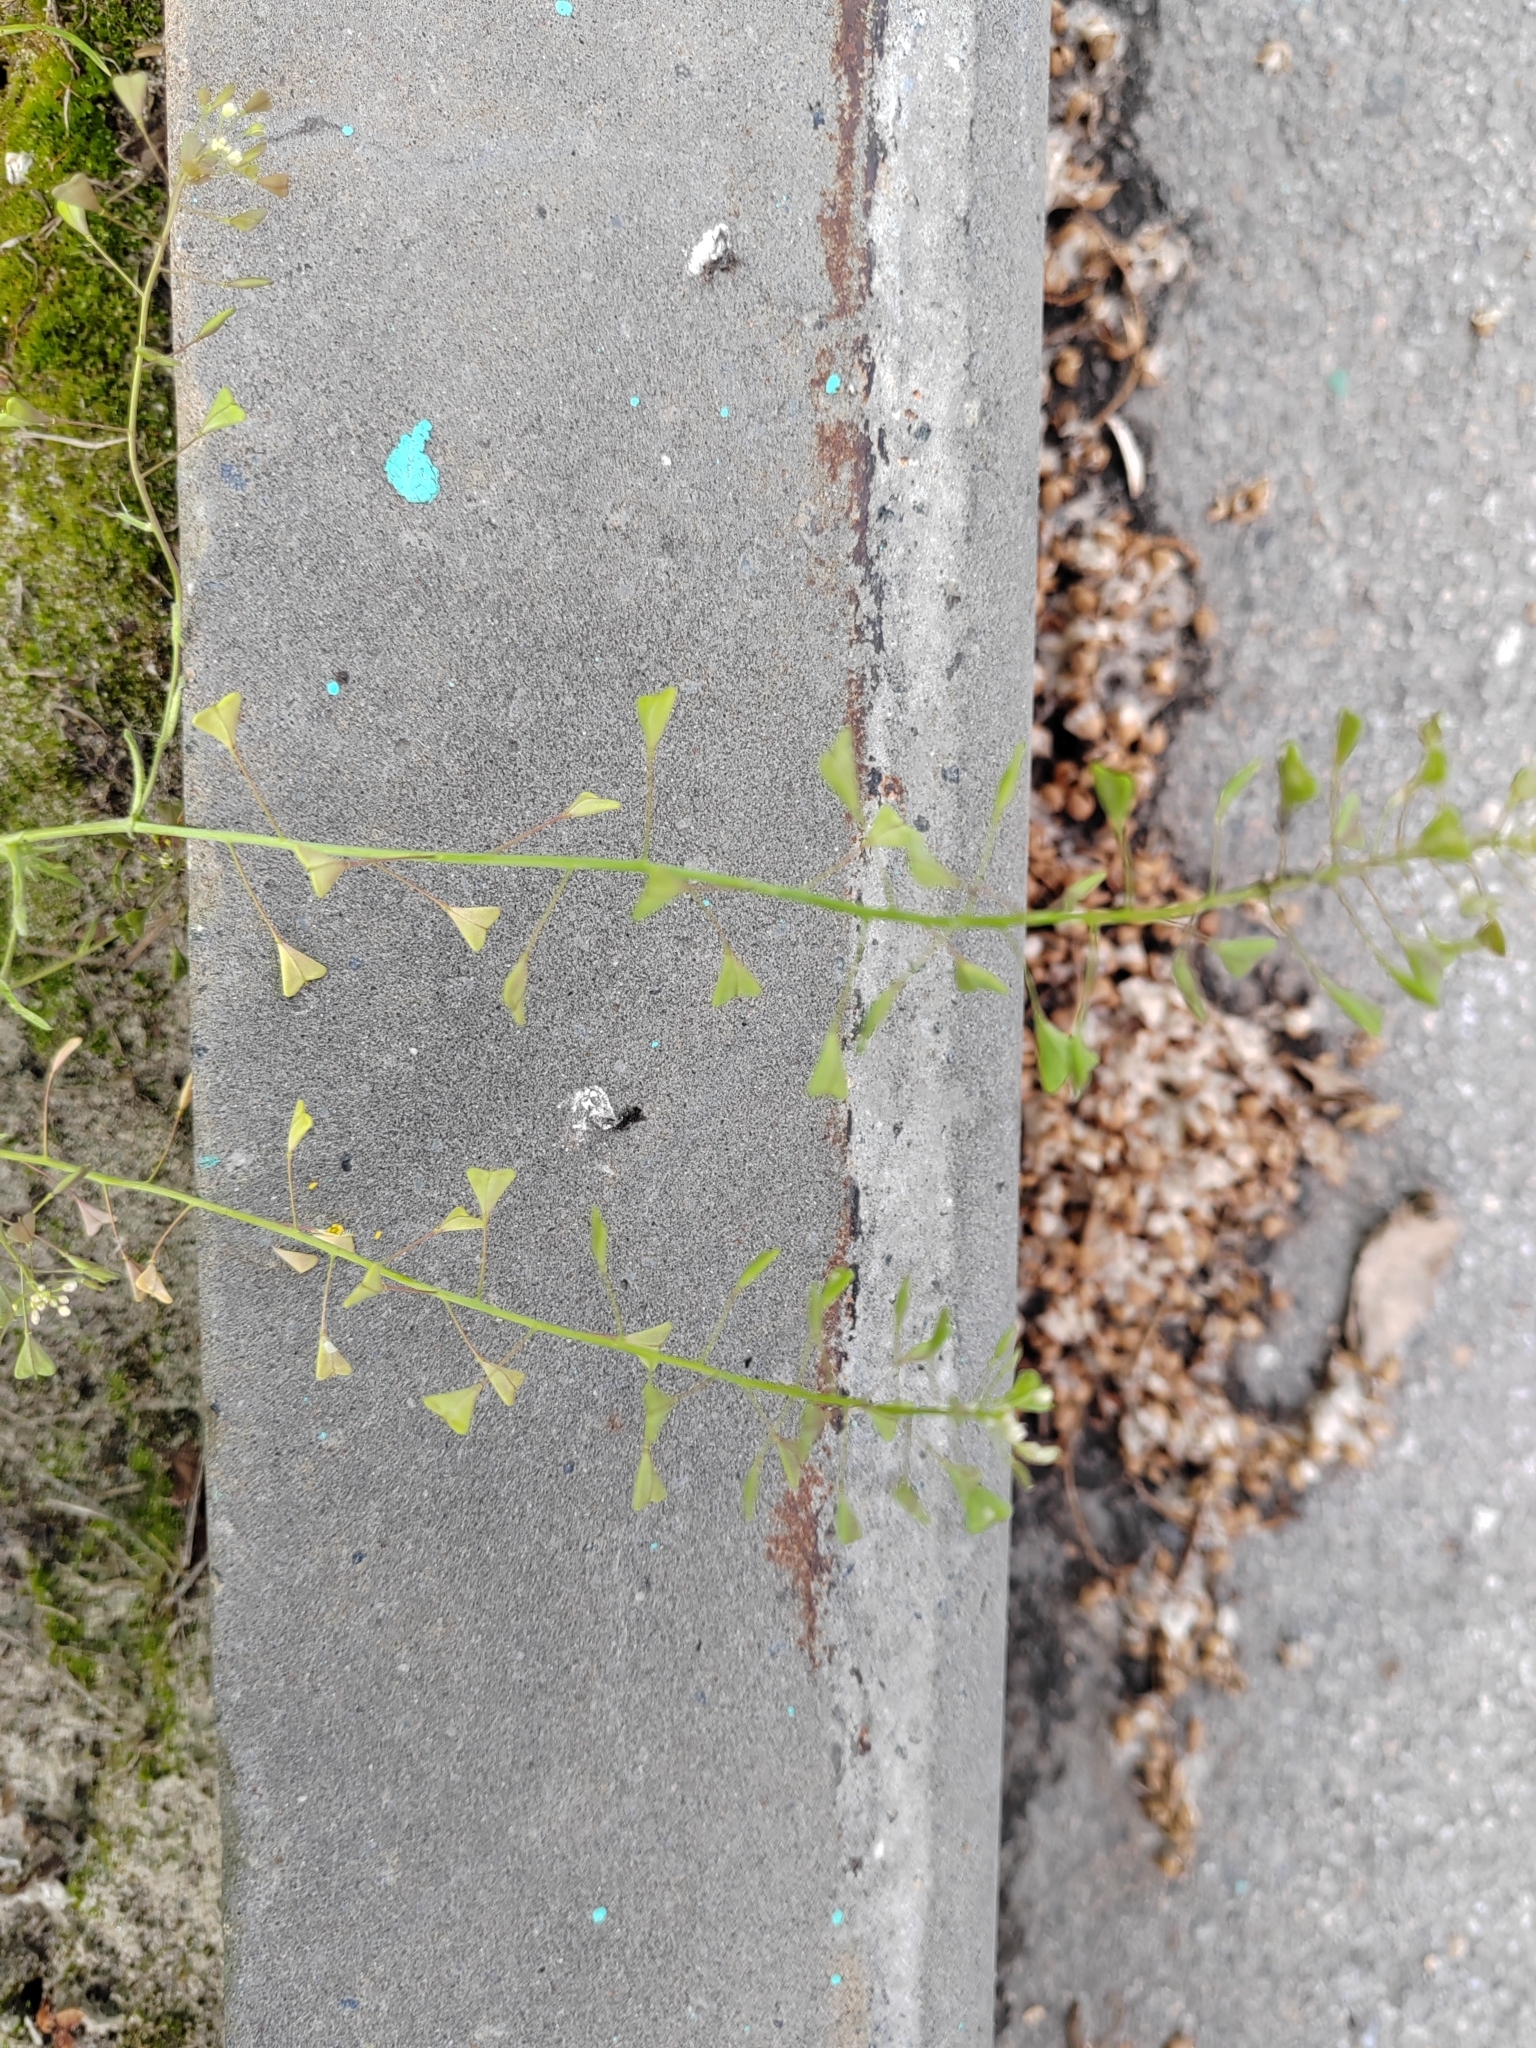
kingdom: Plantae
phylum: Tracheophyta
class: Magnoliopsida
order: Brassicales
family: Brassicaceae
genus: Capsella
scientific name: Capsella bursa-pastoris
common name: Shepherd's purse
